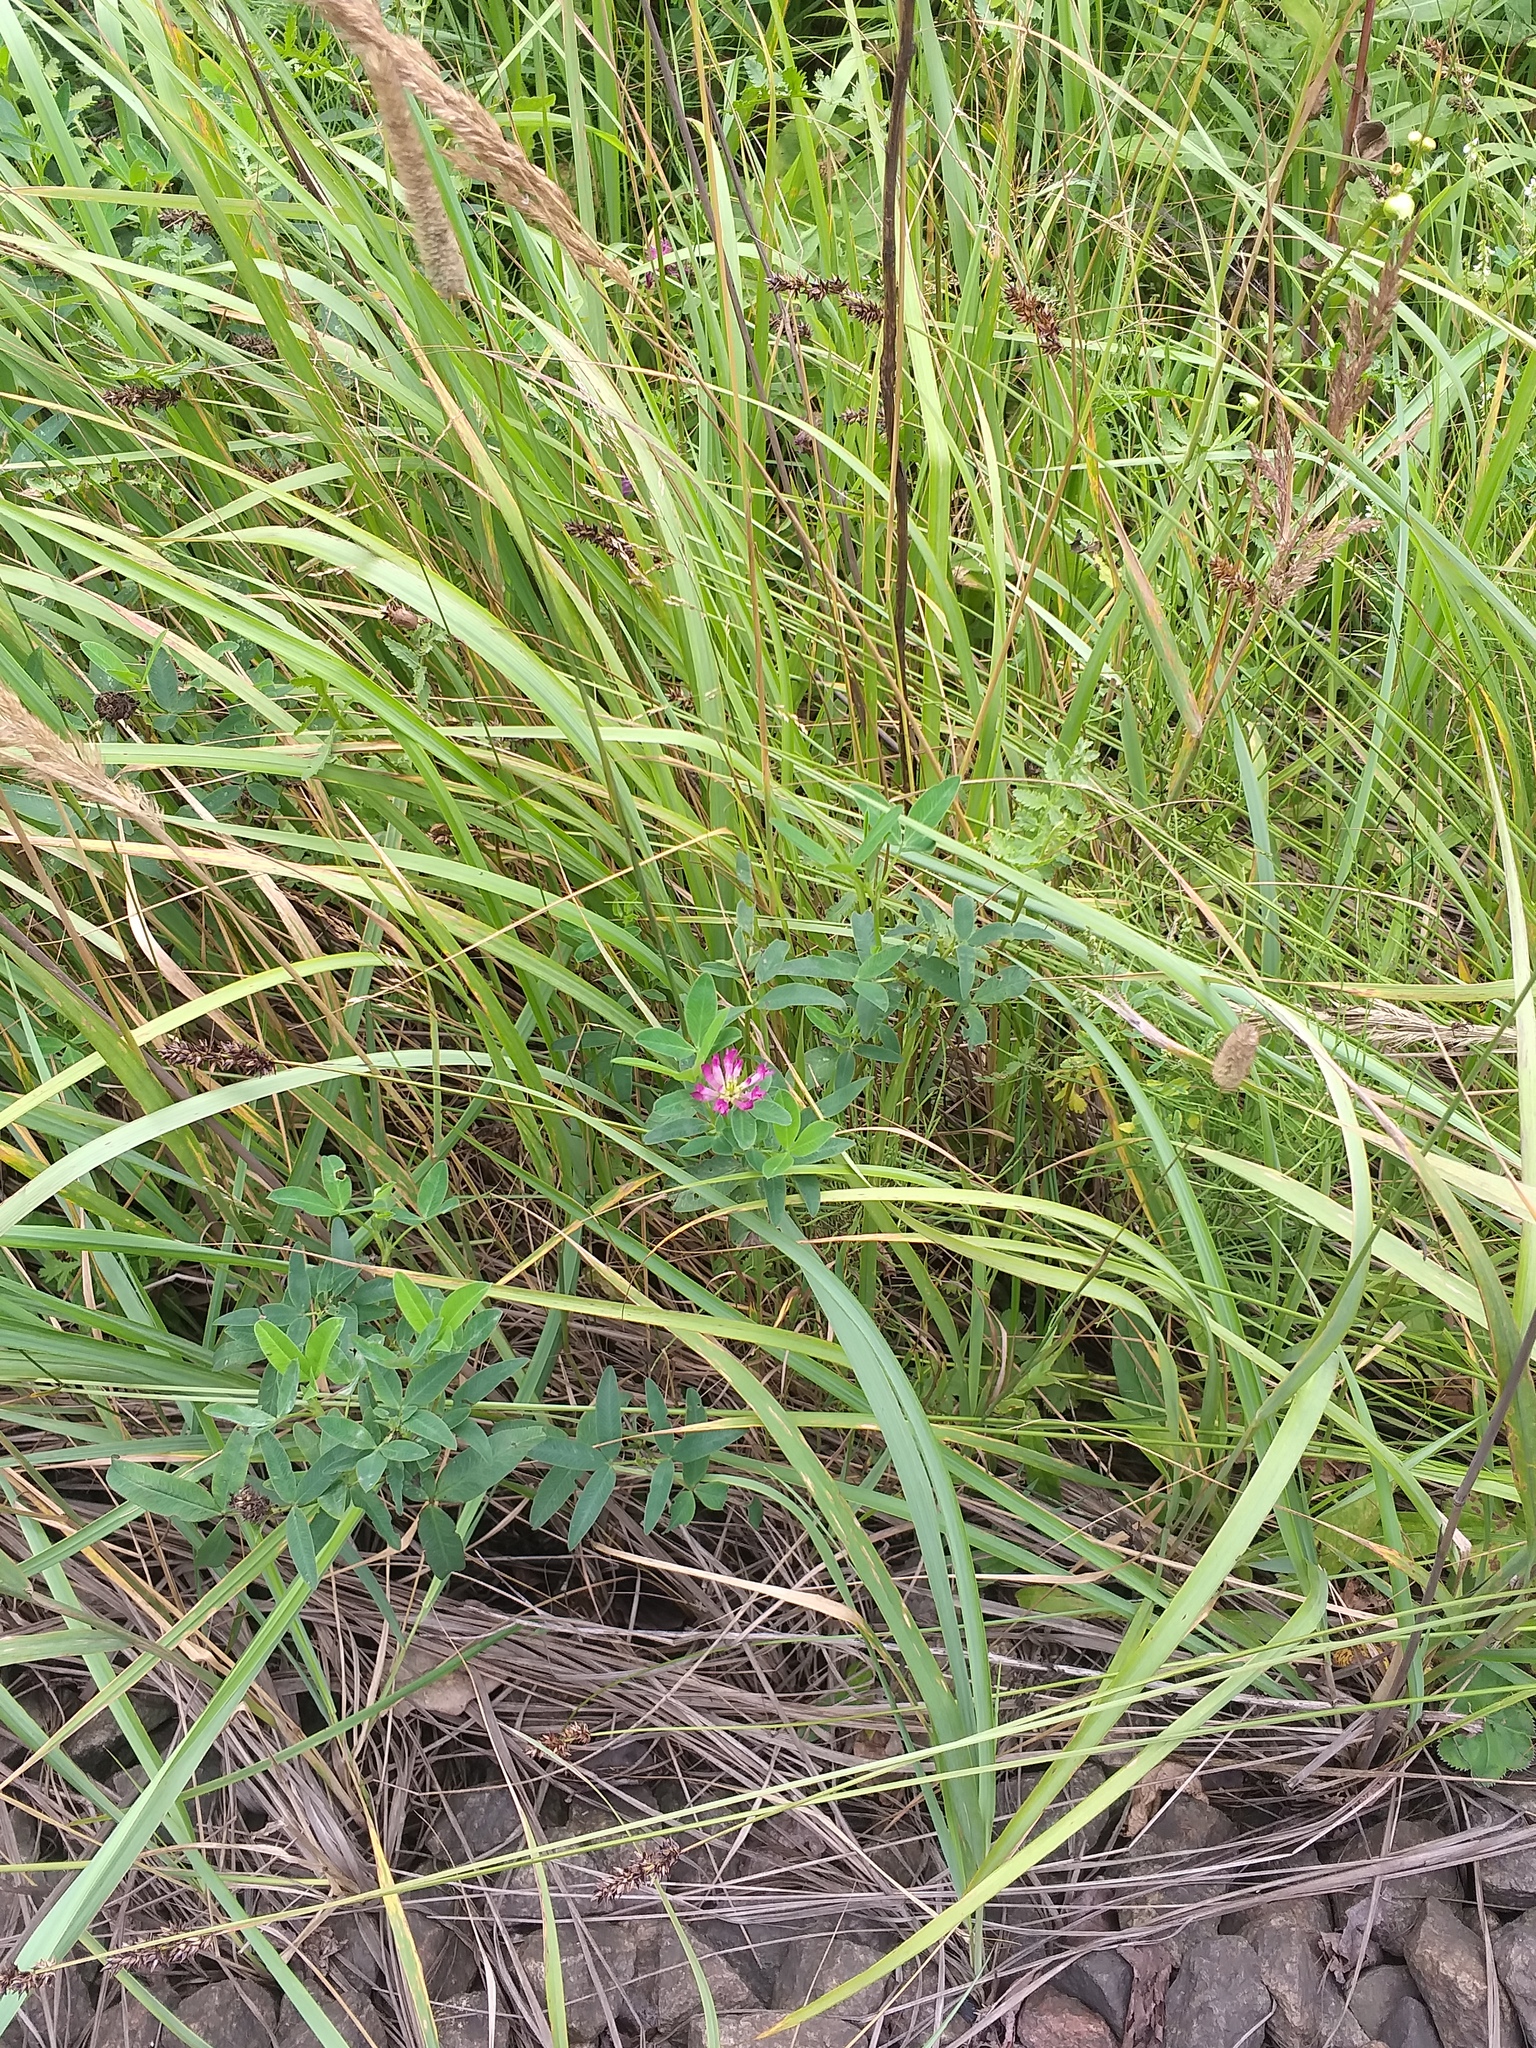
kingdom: Plantae
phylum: Tracheophyta
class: Magnoliopsida
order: Fabales
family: Fabaceae
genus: Trifolium
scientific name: Trifolium medium
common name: Zigzag clover
